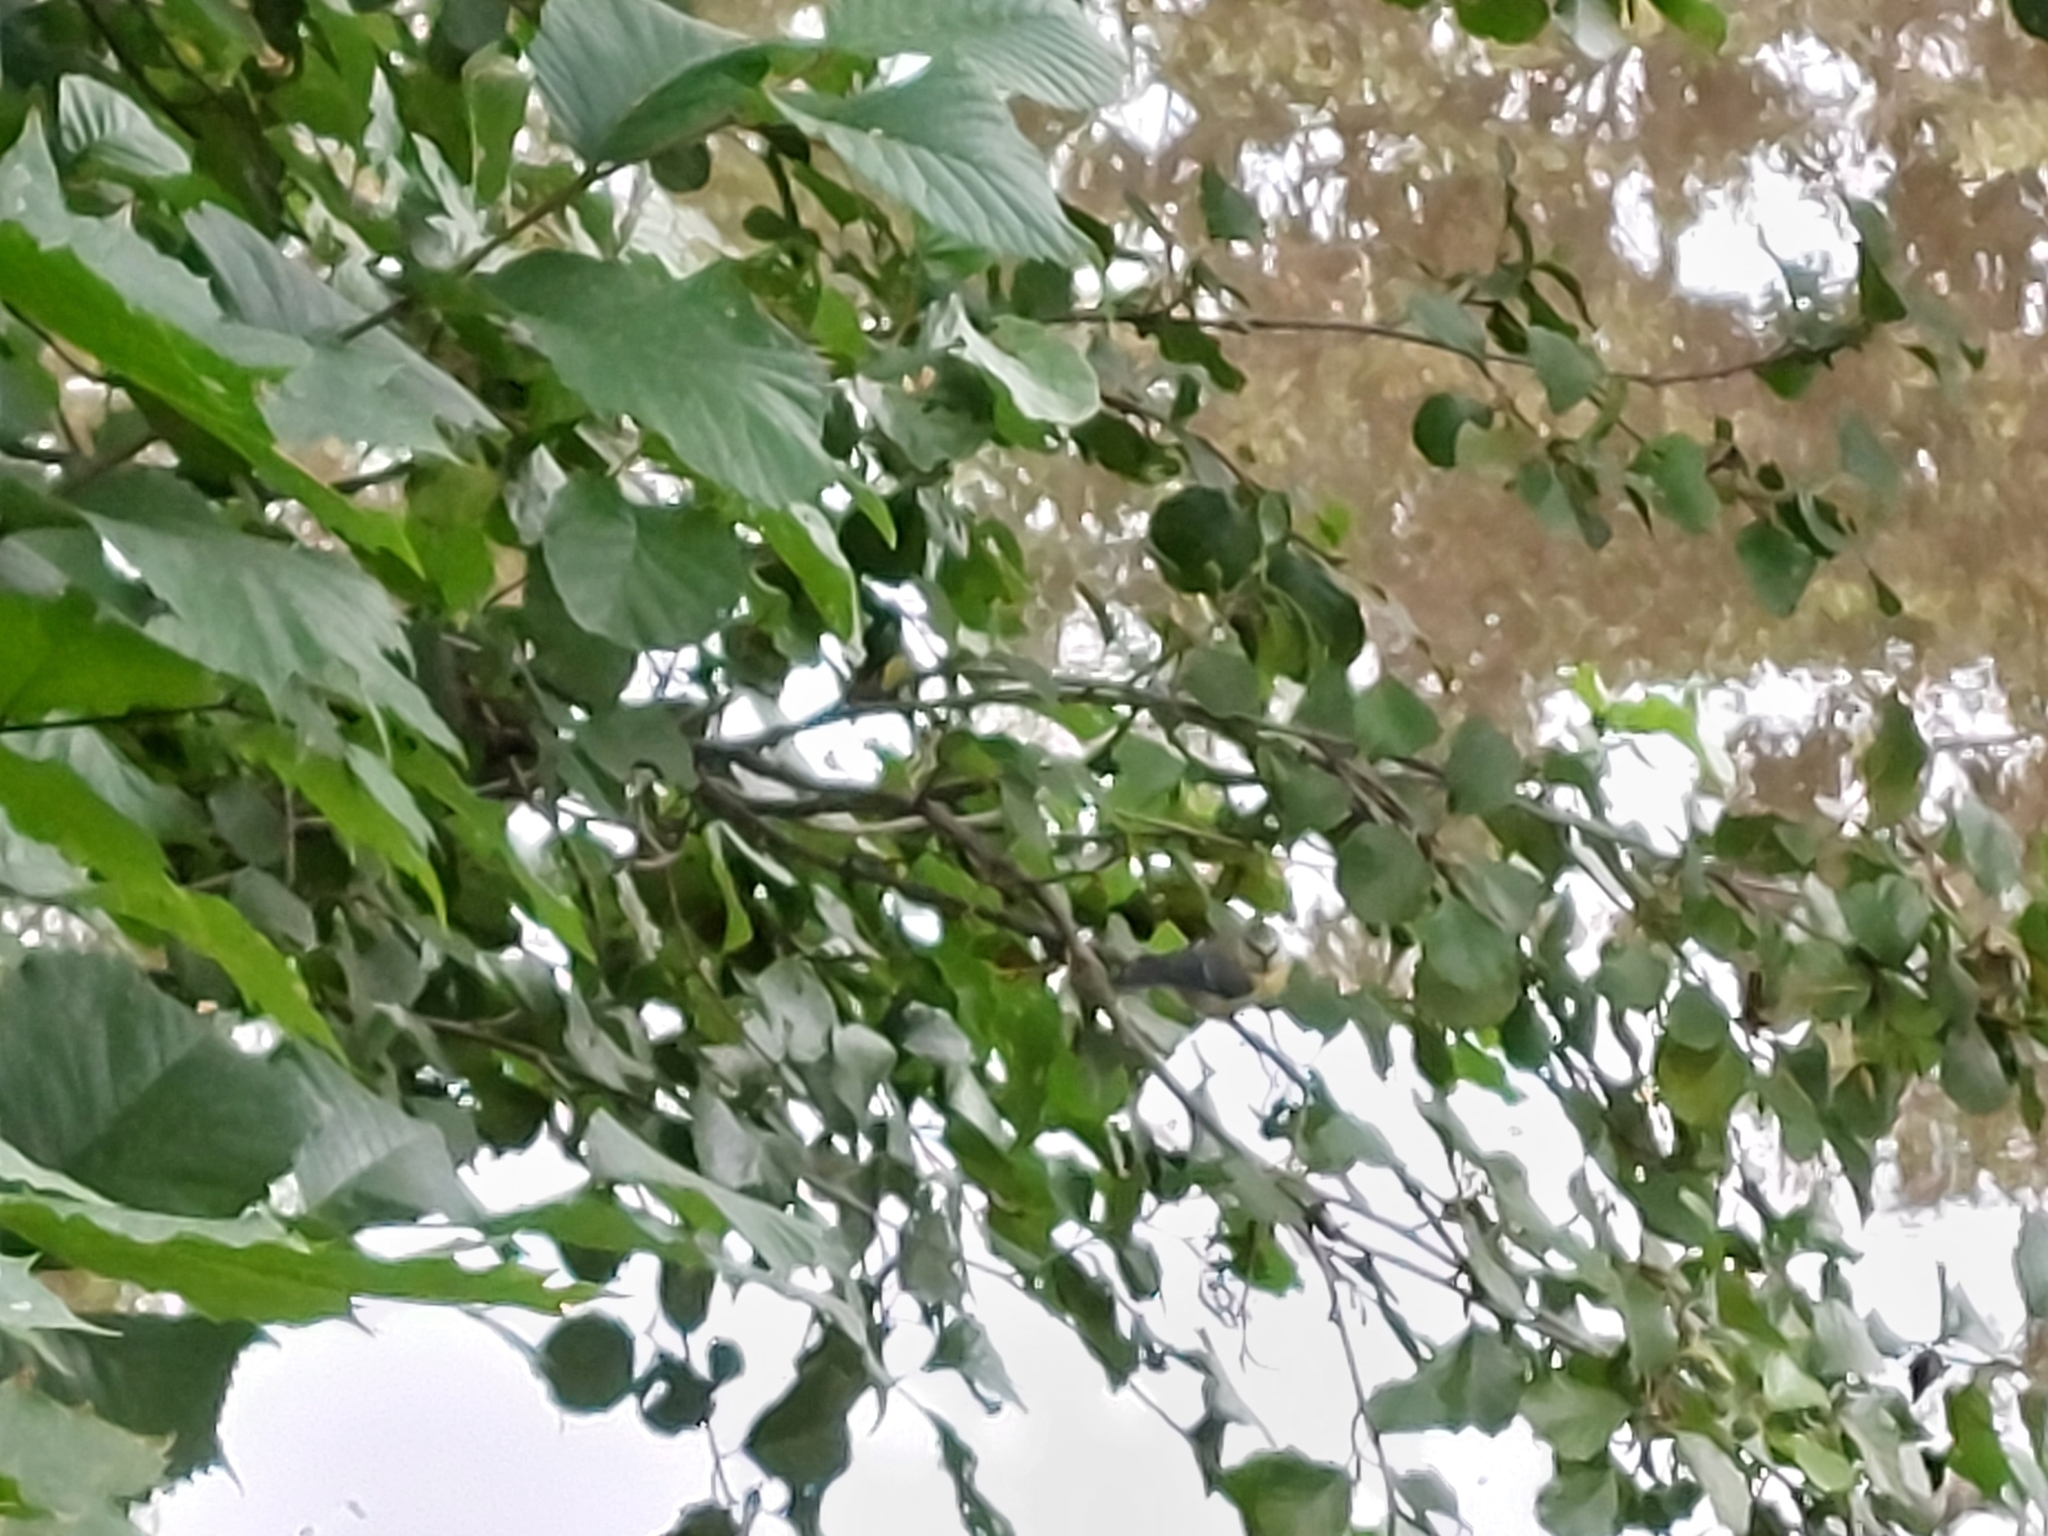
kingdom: Animalia
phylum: Chordata
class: Aves
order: Passeriformes
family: Paridae
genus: Cyanistes
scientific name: Cyanistes caeruleus
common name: Eurasian blue tit
